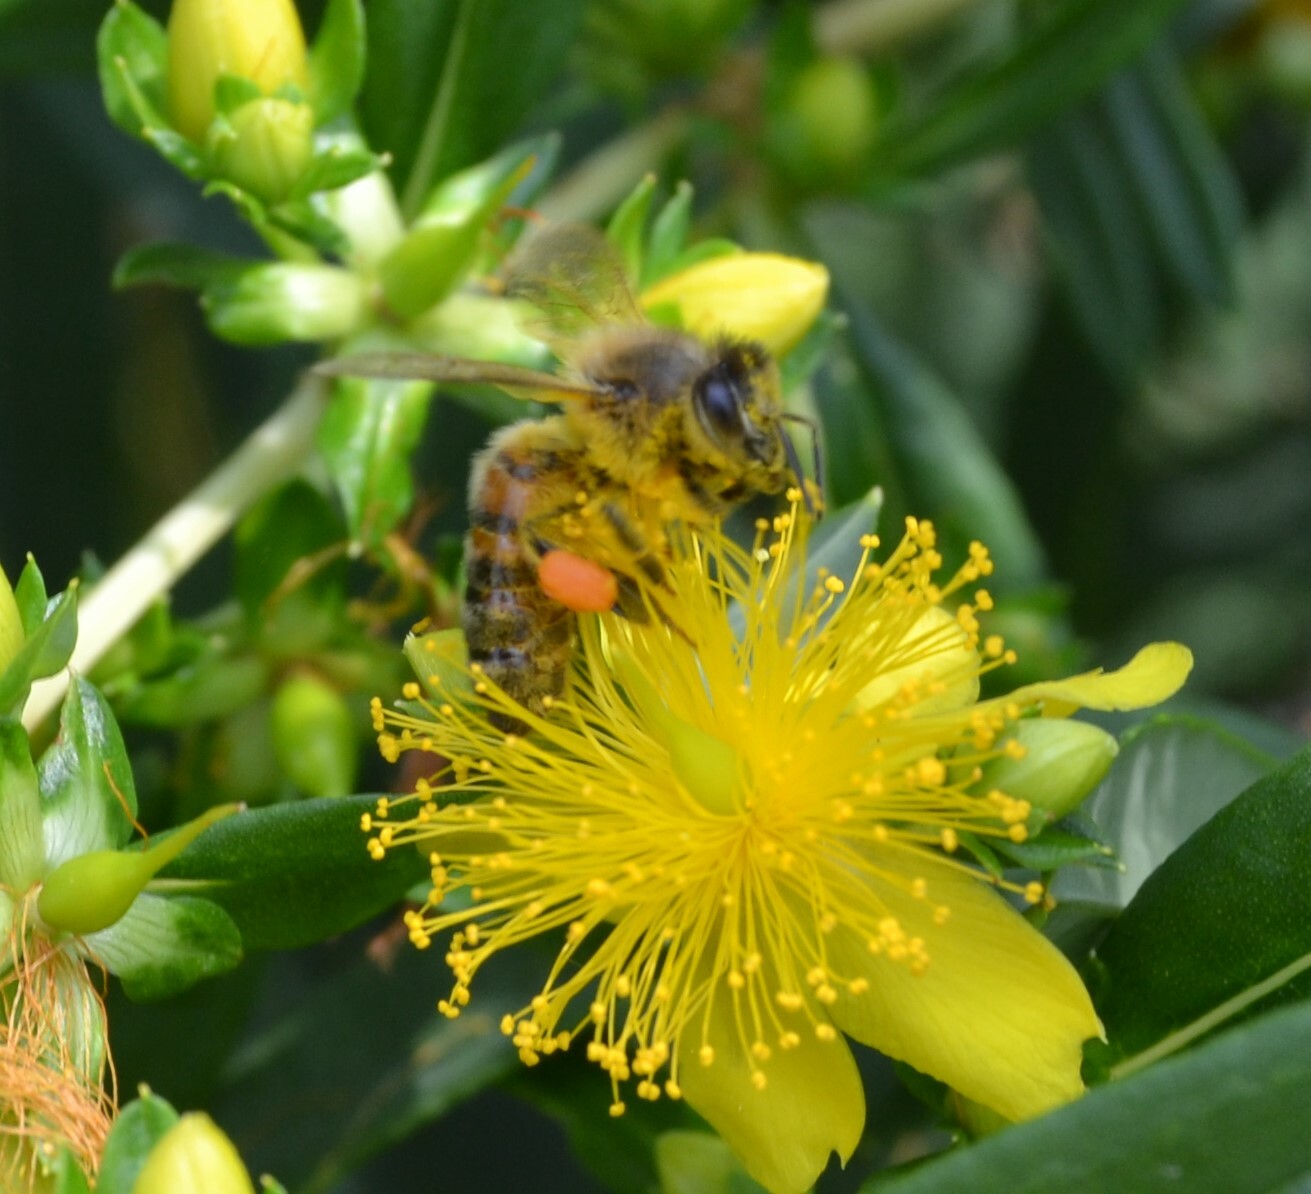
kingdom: Animalia
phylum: Arthropoda
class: Insecta
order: Hymenoptera
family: Apidae
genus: Apis
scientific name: Apis mellifera
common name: Honey bee
